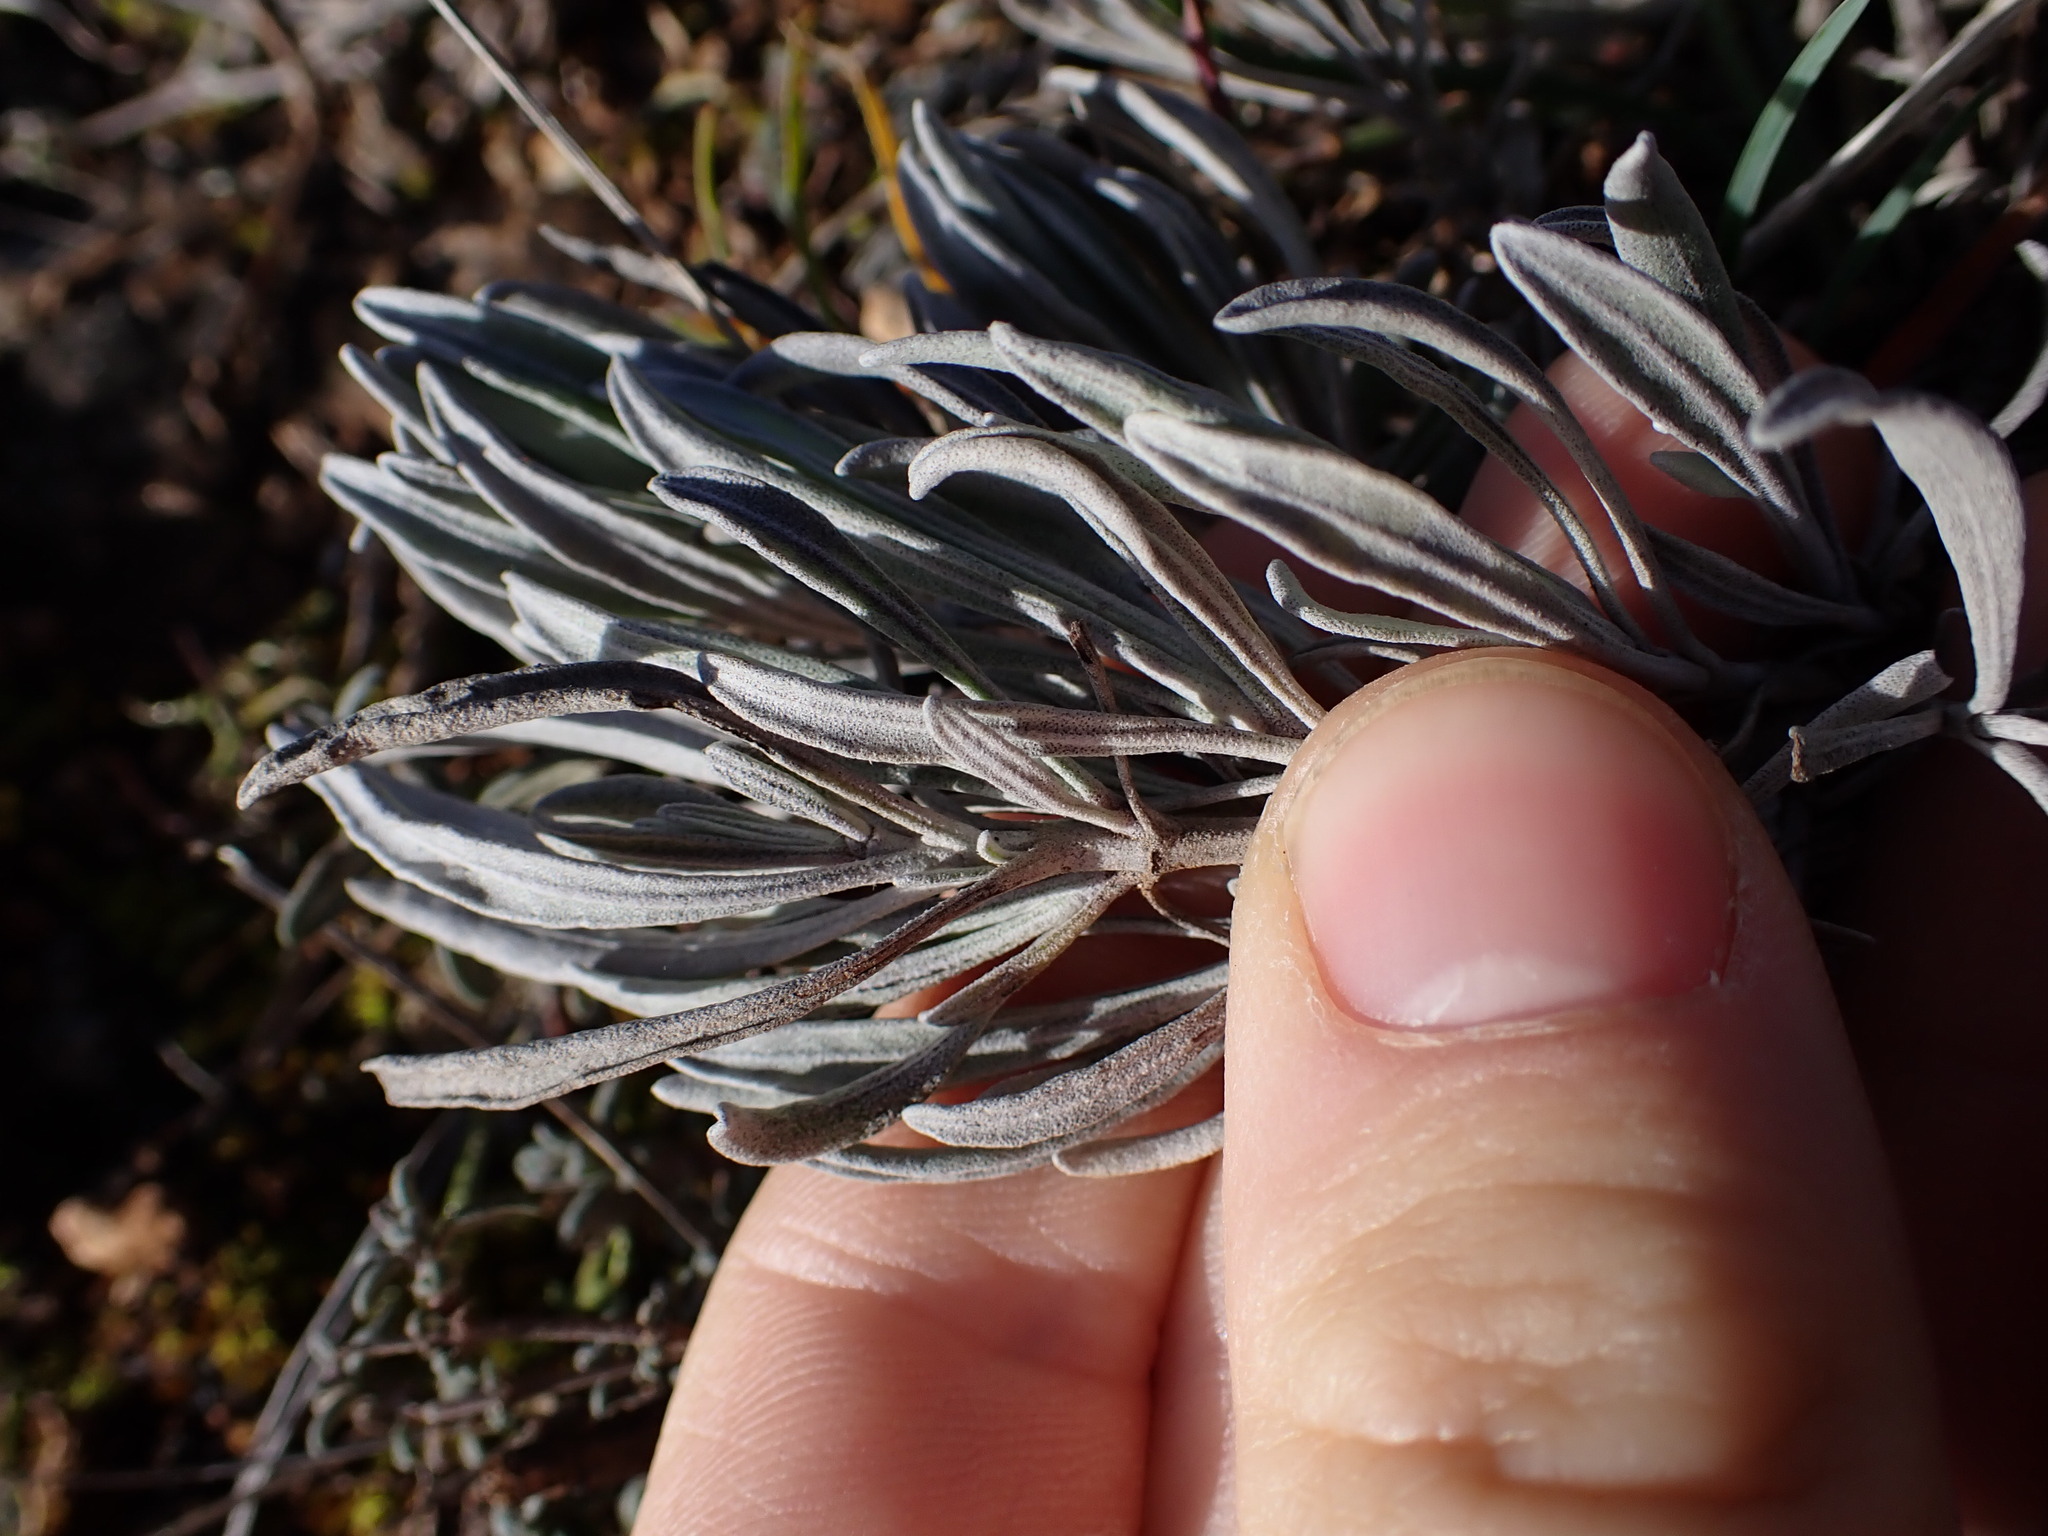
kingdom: Plantae
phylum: Tracheophyta
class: Magnoliopsida
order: Lamiales
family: Lamiaceae
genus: Lavandula
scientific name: Lavandula latifolia
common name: Spike lavendar
